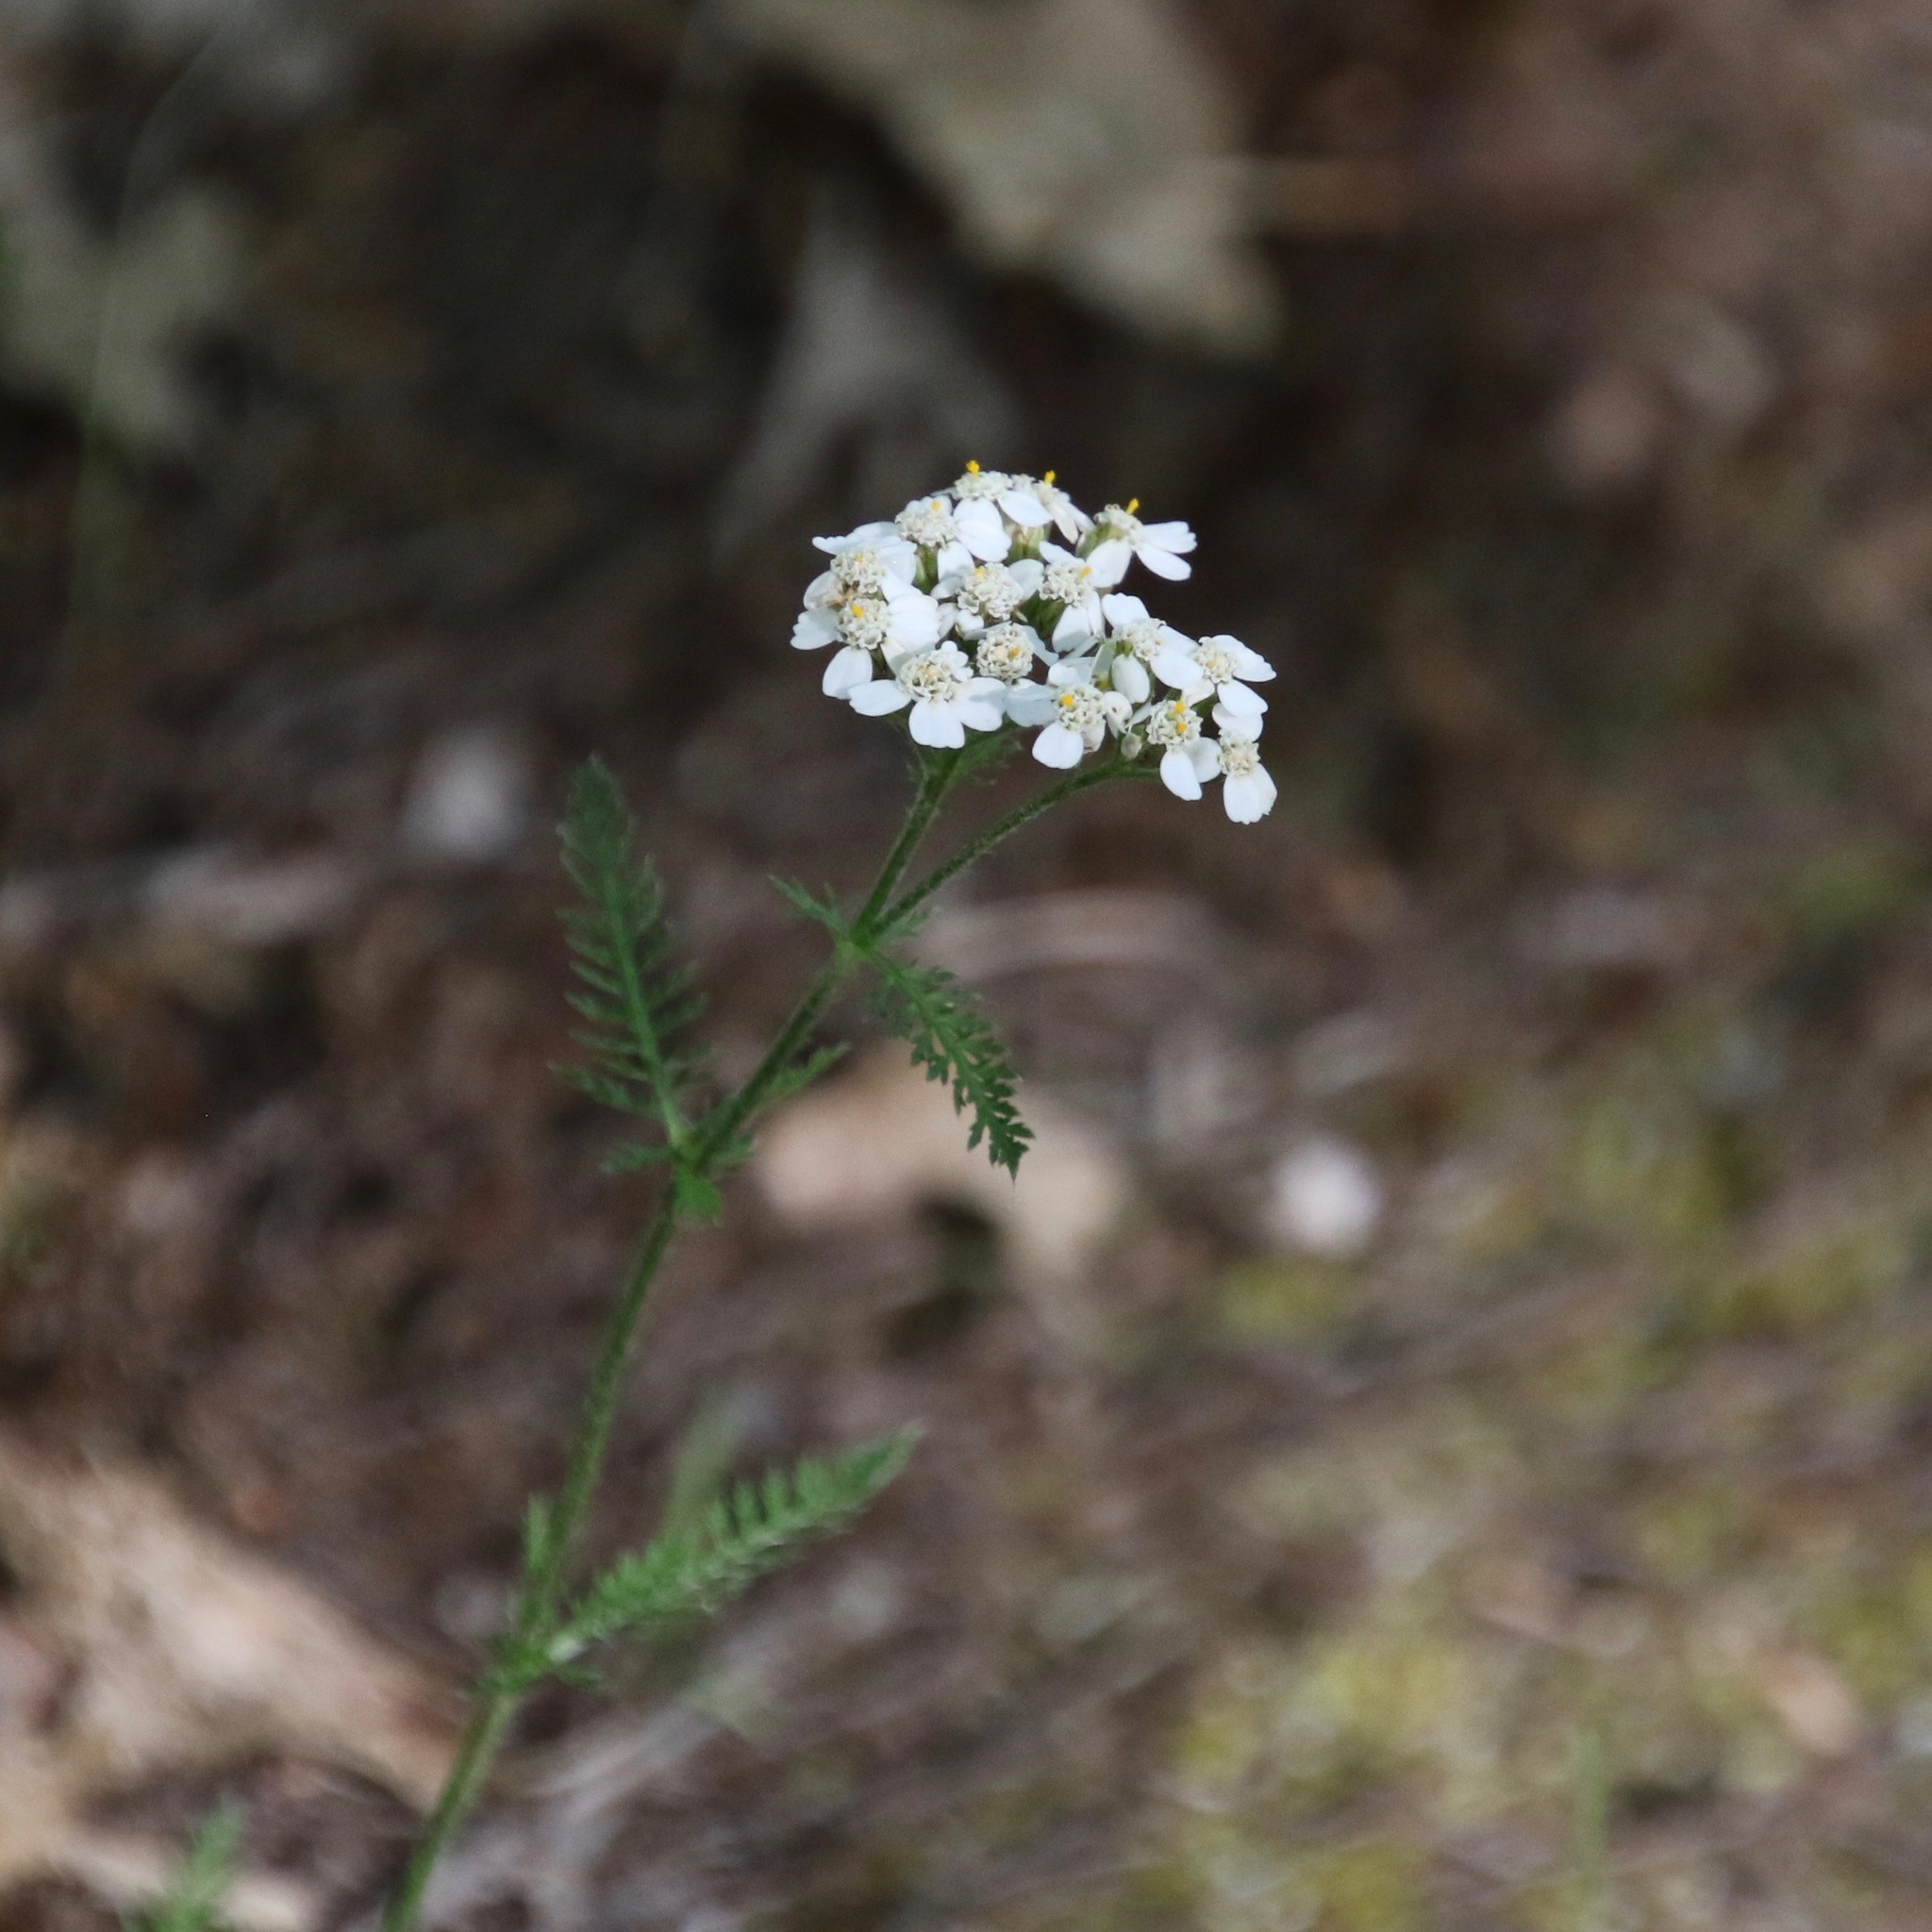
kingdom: Plantae
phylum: Tracheophyta
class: Magnoliopsida
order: Asterales
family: Asteraceae
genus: Achillea
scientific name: Achillea millefolium
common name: Yarrow
